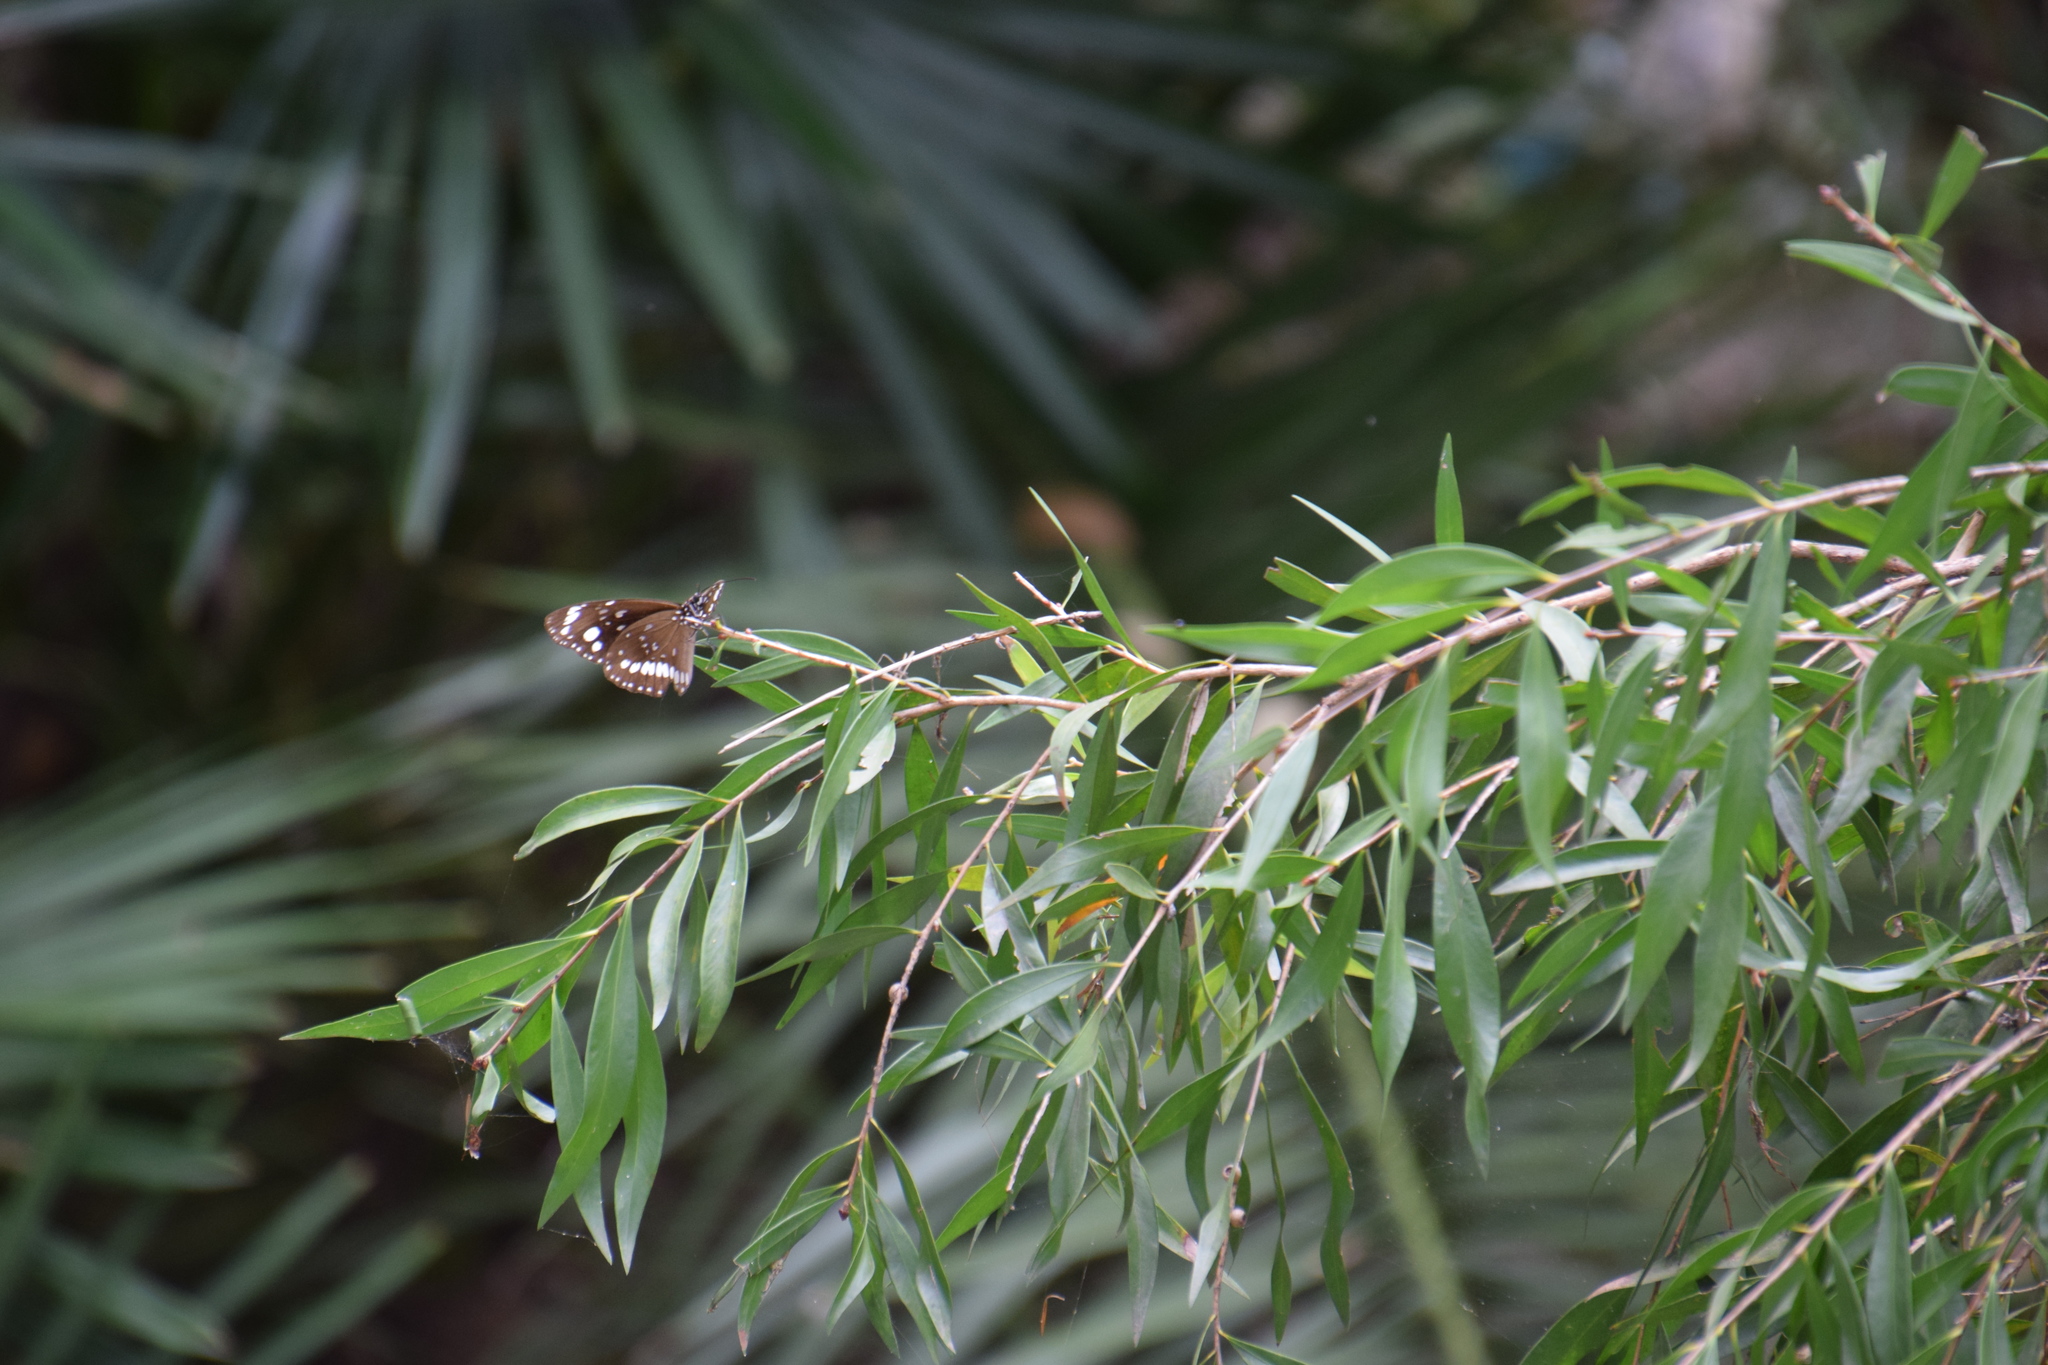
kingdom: Animalia
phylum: Arthropoda
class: Insecta
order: Lepidoptera
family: Nymphalidae
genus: Euploea
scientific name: Euploea core
